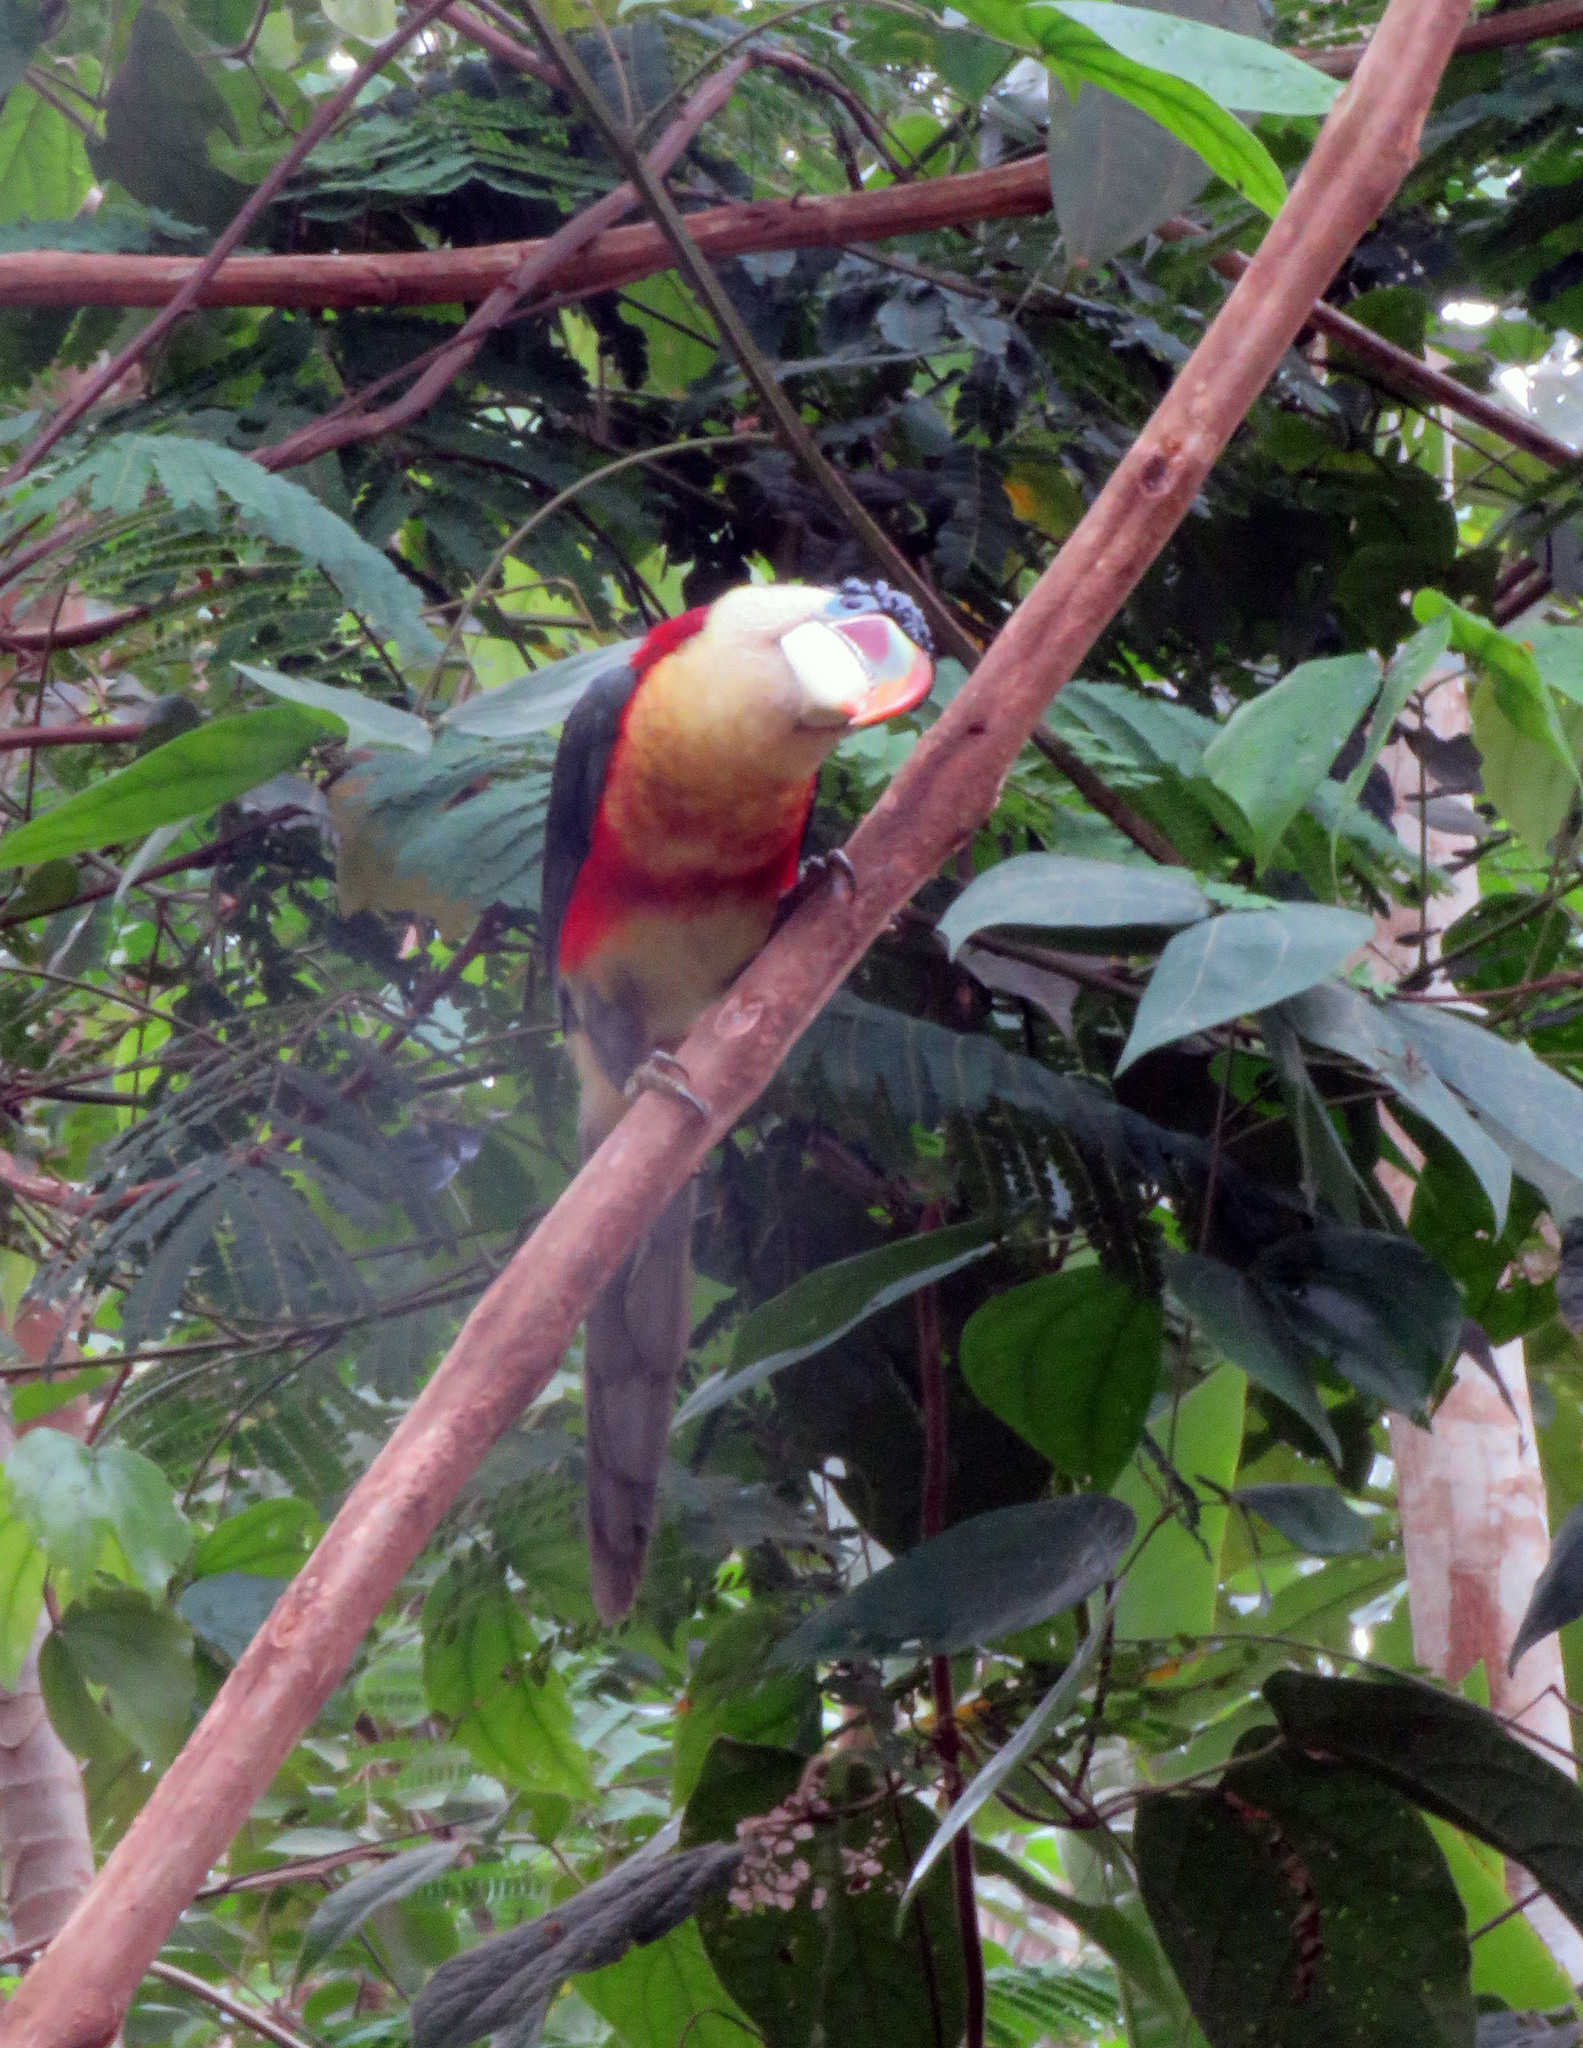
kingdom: Animalia
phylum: Chordata
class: Aves
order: Piciformes
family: Ramphastidae
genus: Pteroglossus
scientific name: Pteroglossus beauharnaisii
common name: Curl-crested aracari
